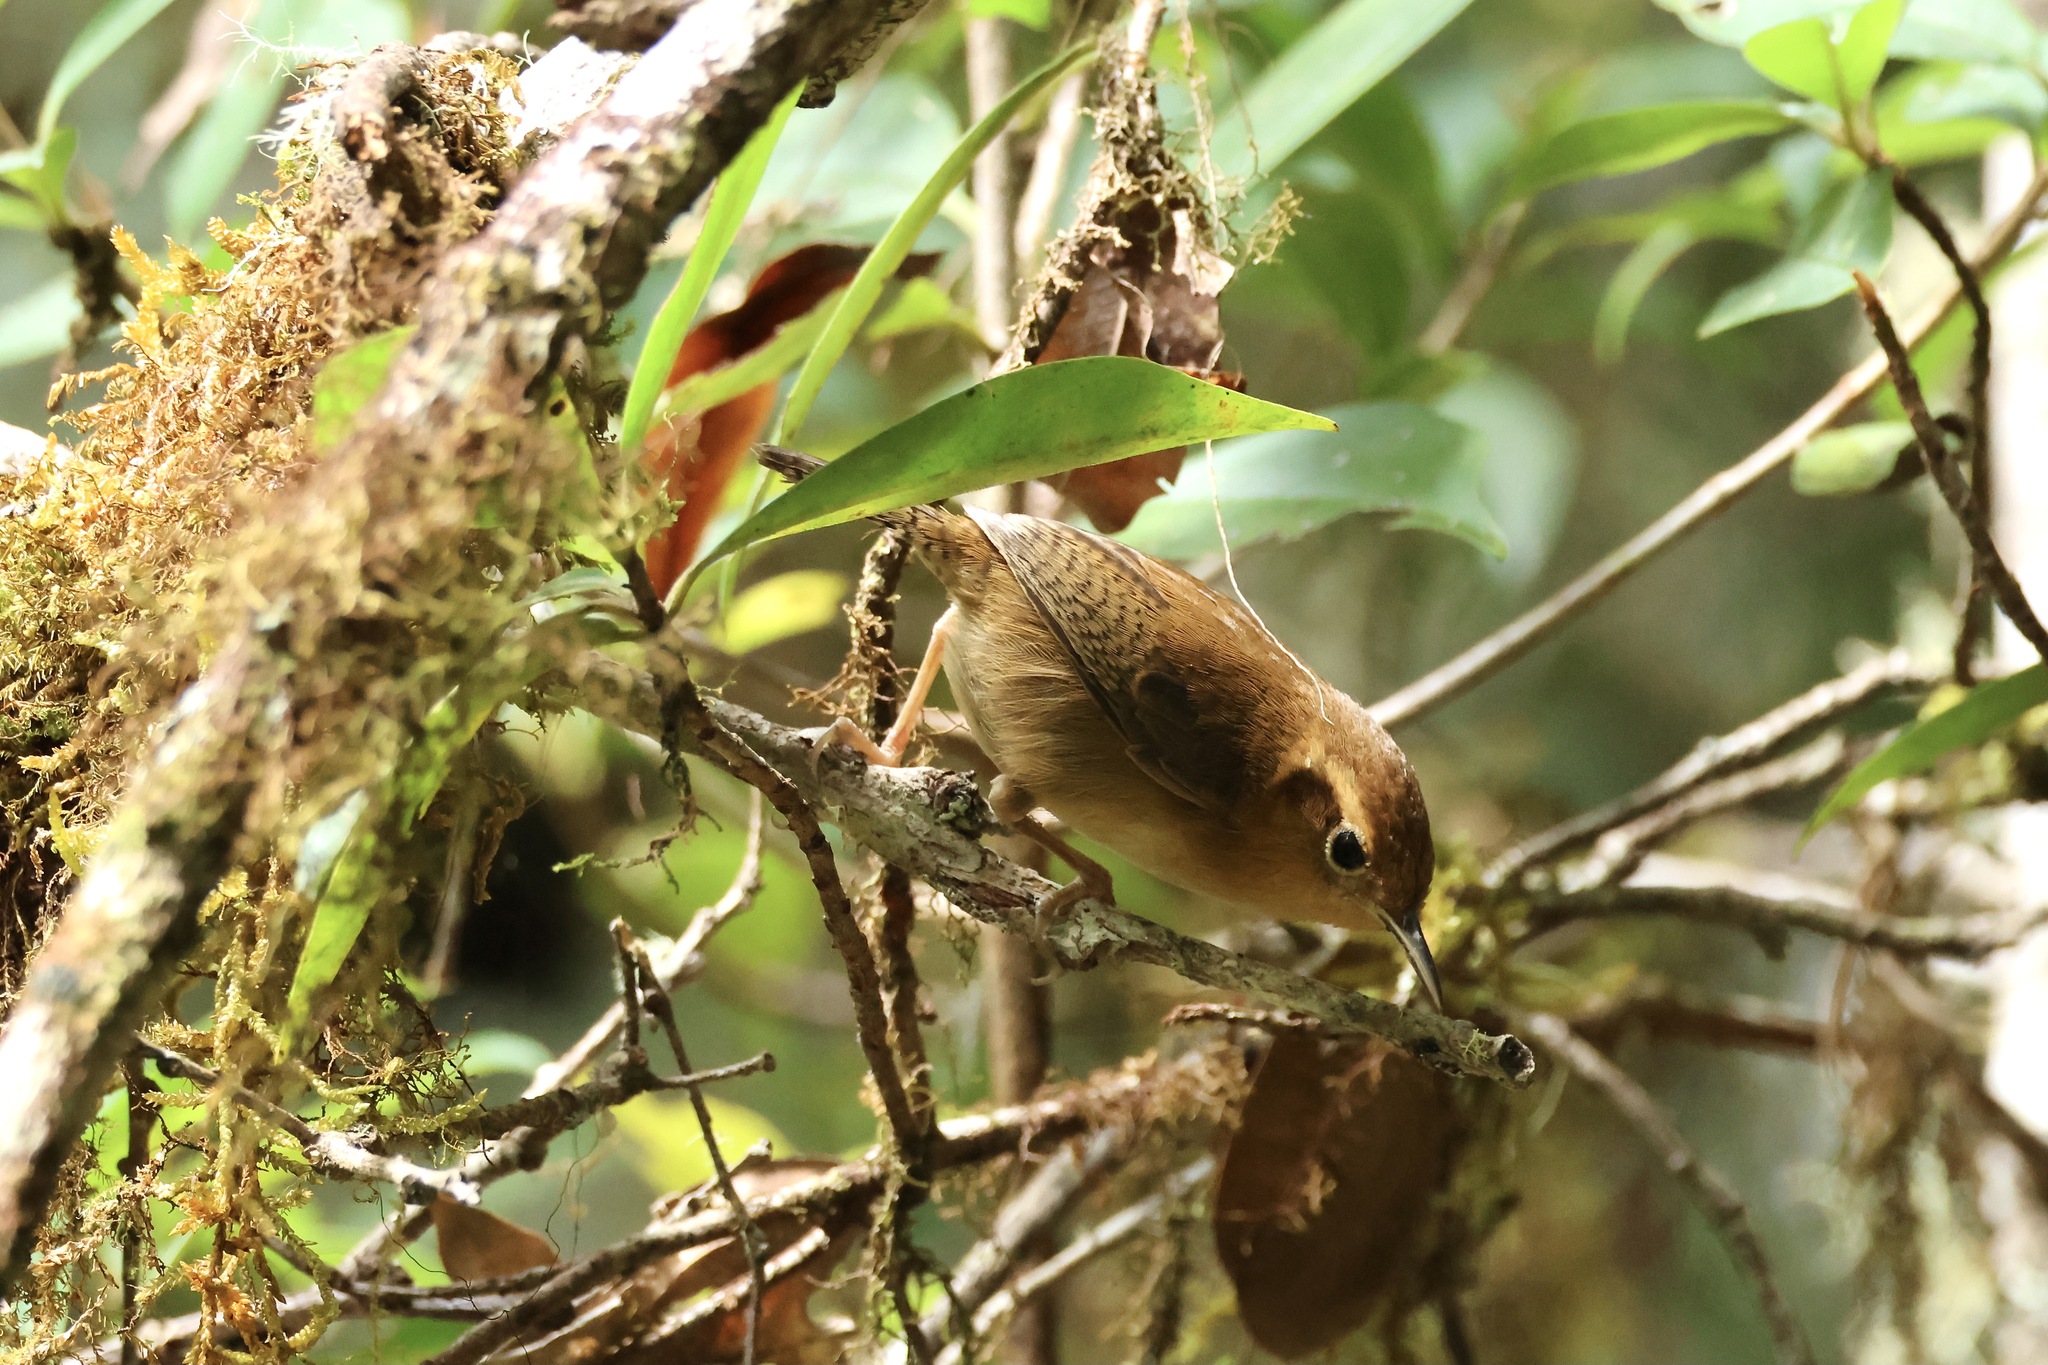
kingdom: Animalia
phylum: Chordata
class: Aves
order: Passeriformes
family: Troglodytidae
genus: Troglodytes
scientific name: Troglodytes ochraceus
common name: Ochraceous wren
